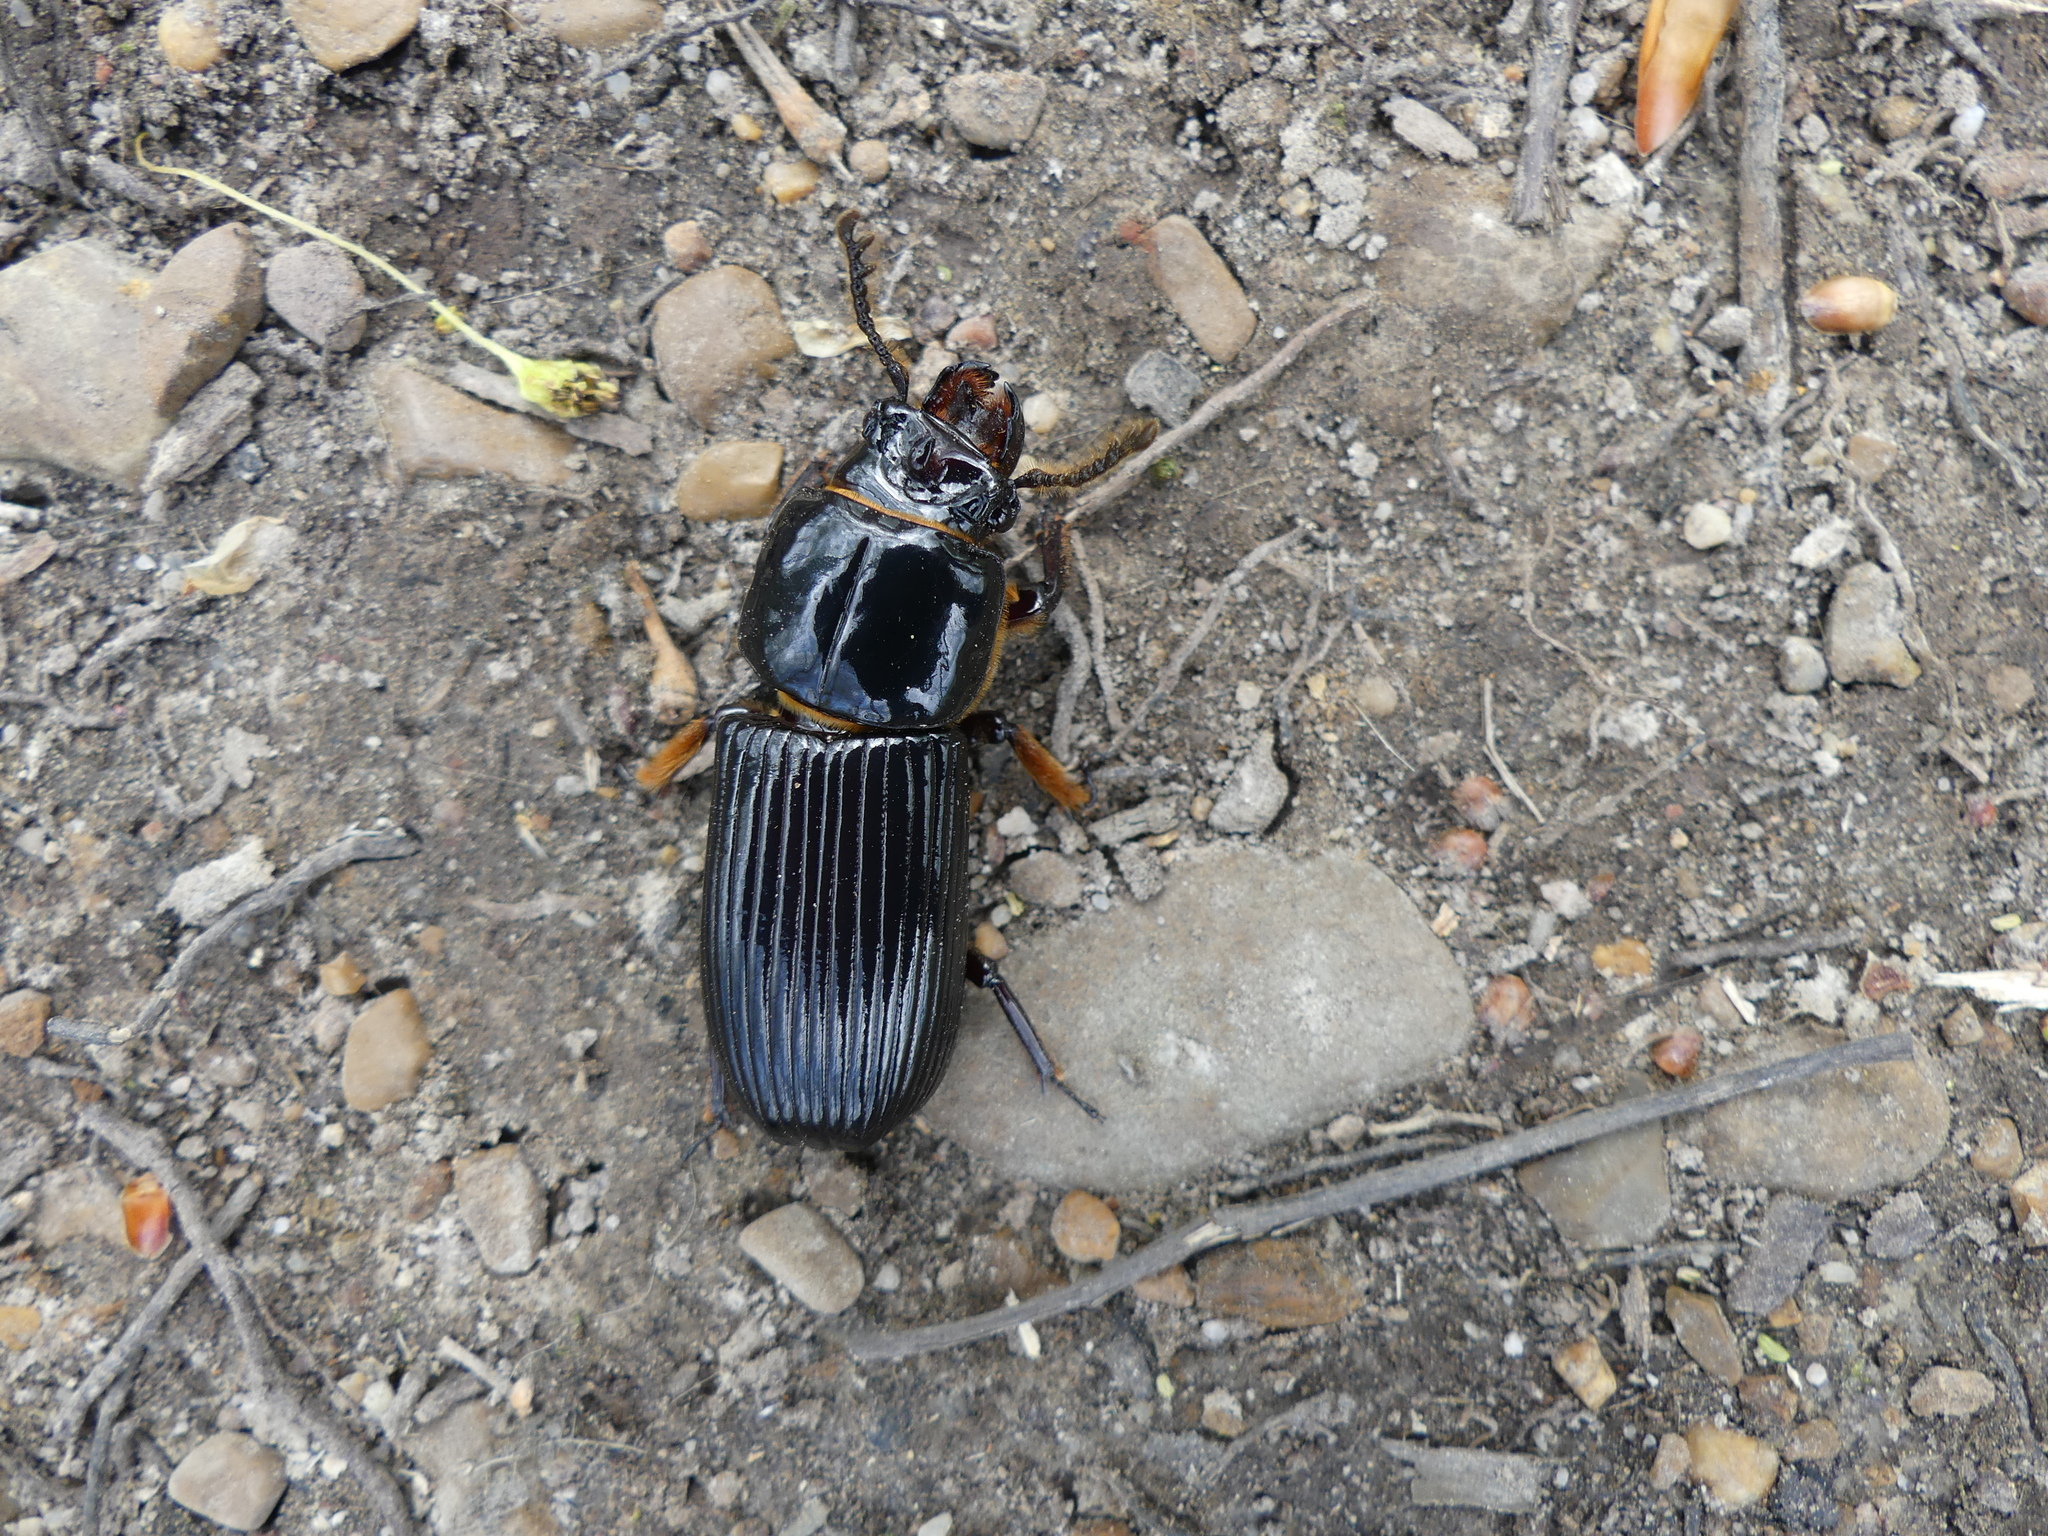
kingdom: Animalia
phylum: Arthropoda
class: Insecta
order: Coleoptera
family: Passalidae
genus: Odontotaenius
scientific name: Odontotaenius disjunctus
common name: Patent leather beetle
